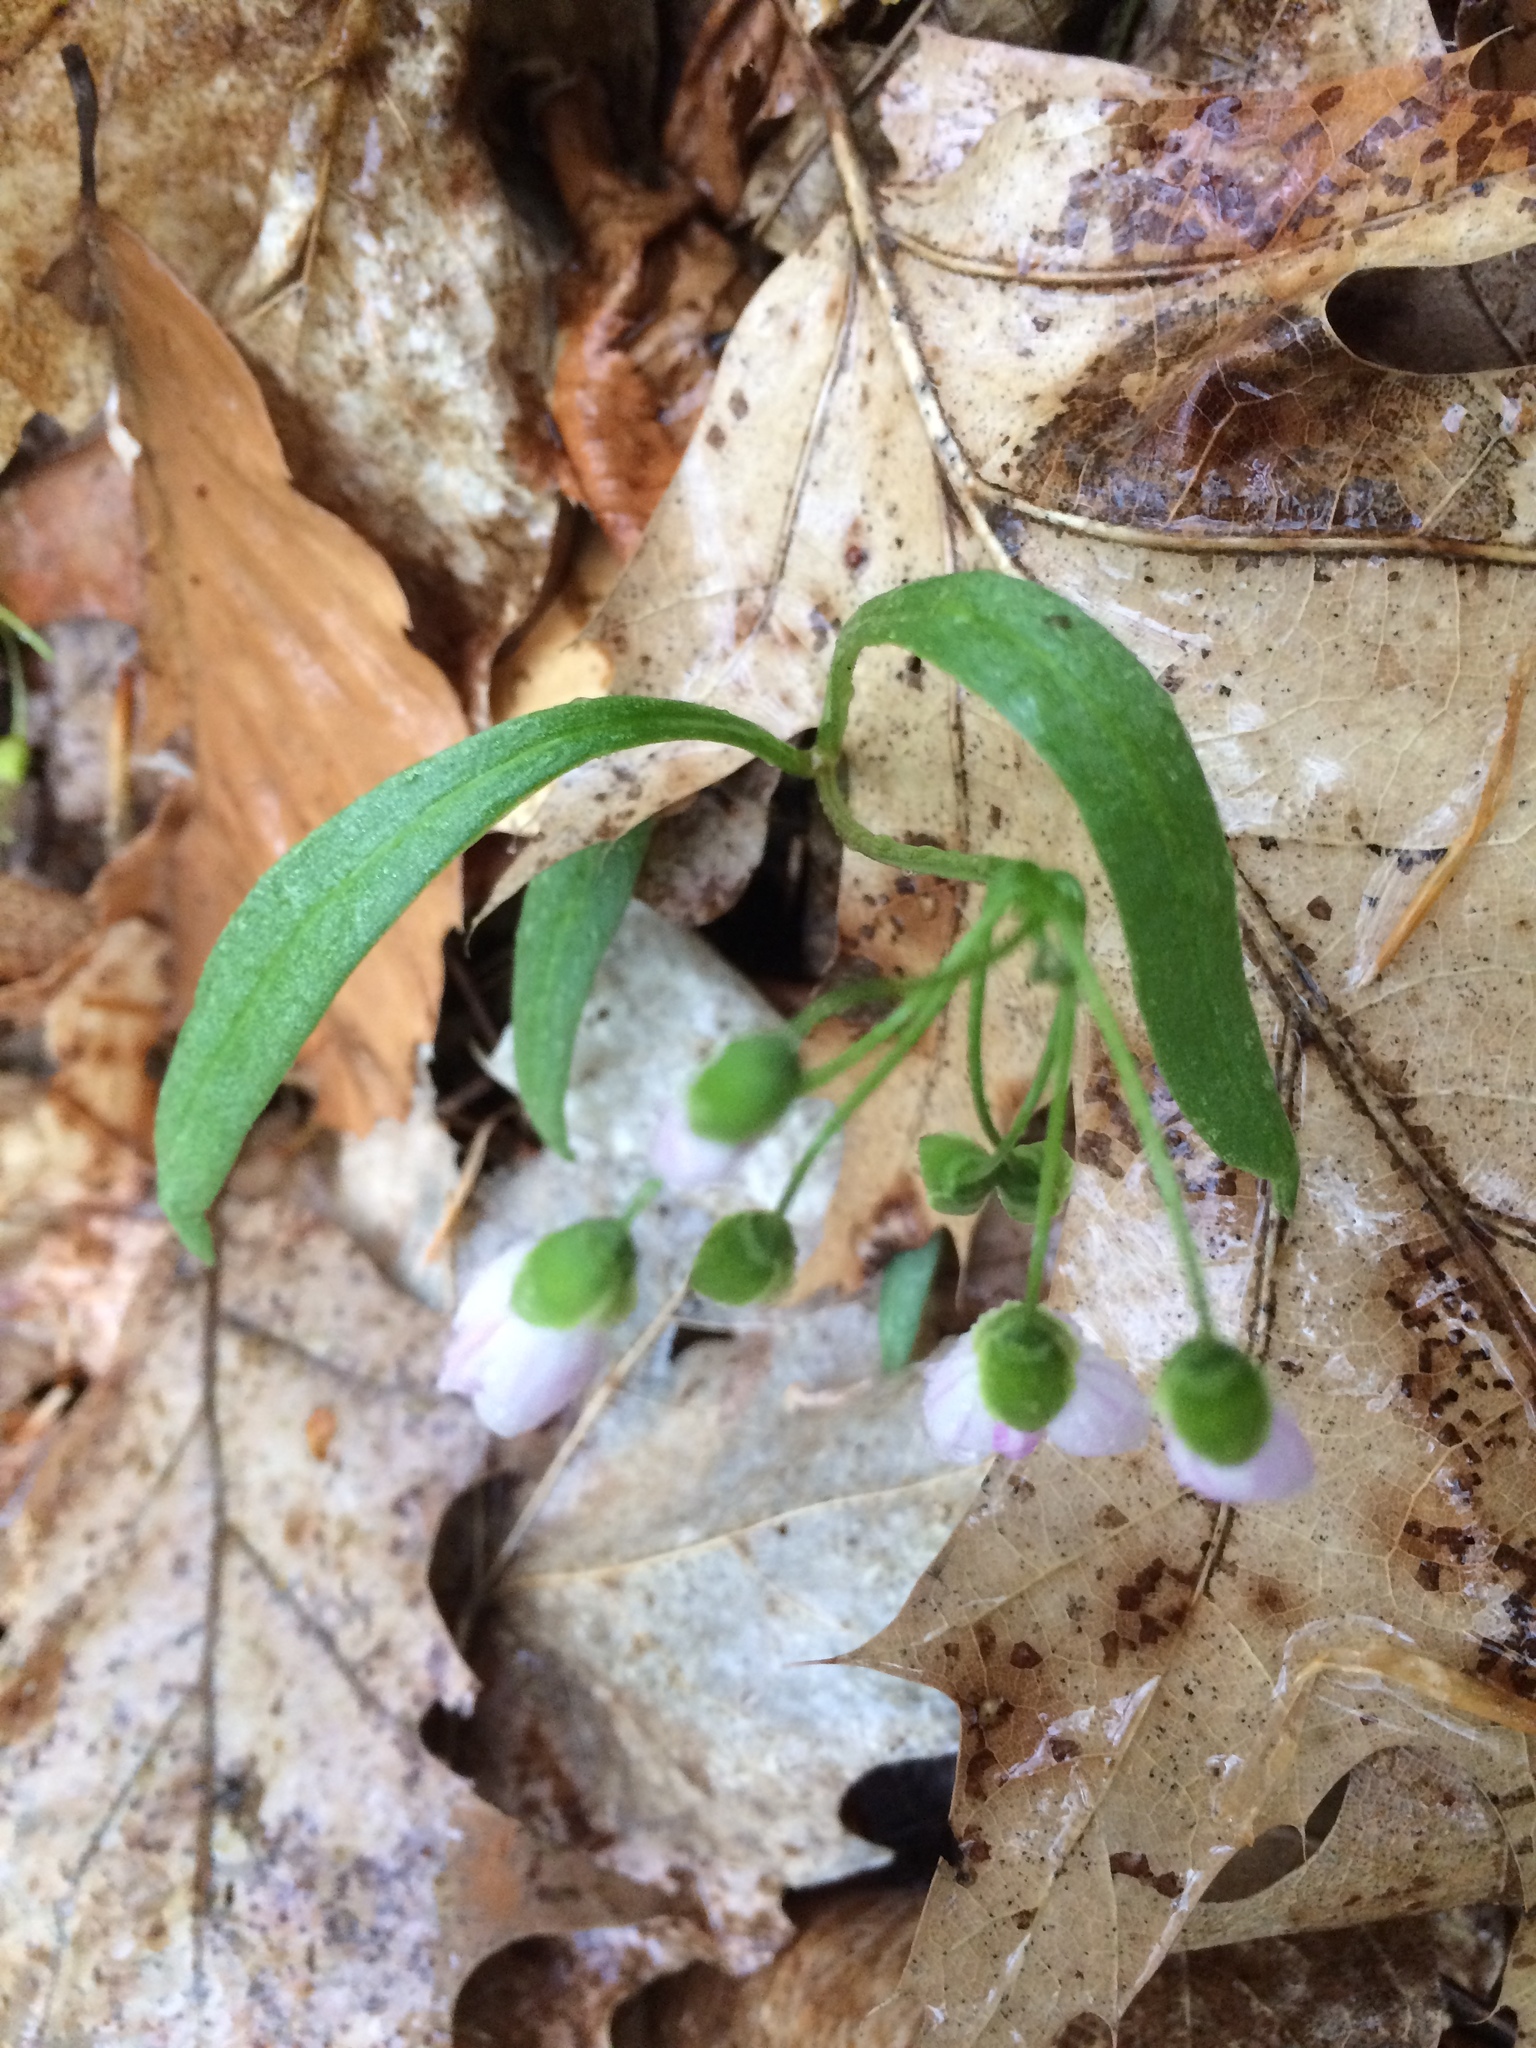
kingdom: Plantae
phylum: Tracheophyta
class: Magnoliopsida
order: Caryophyllales
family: Montiaceae
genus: Claytonia
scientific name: Claytonia virginica
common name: Virginia springbeauty
